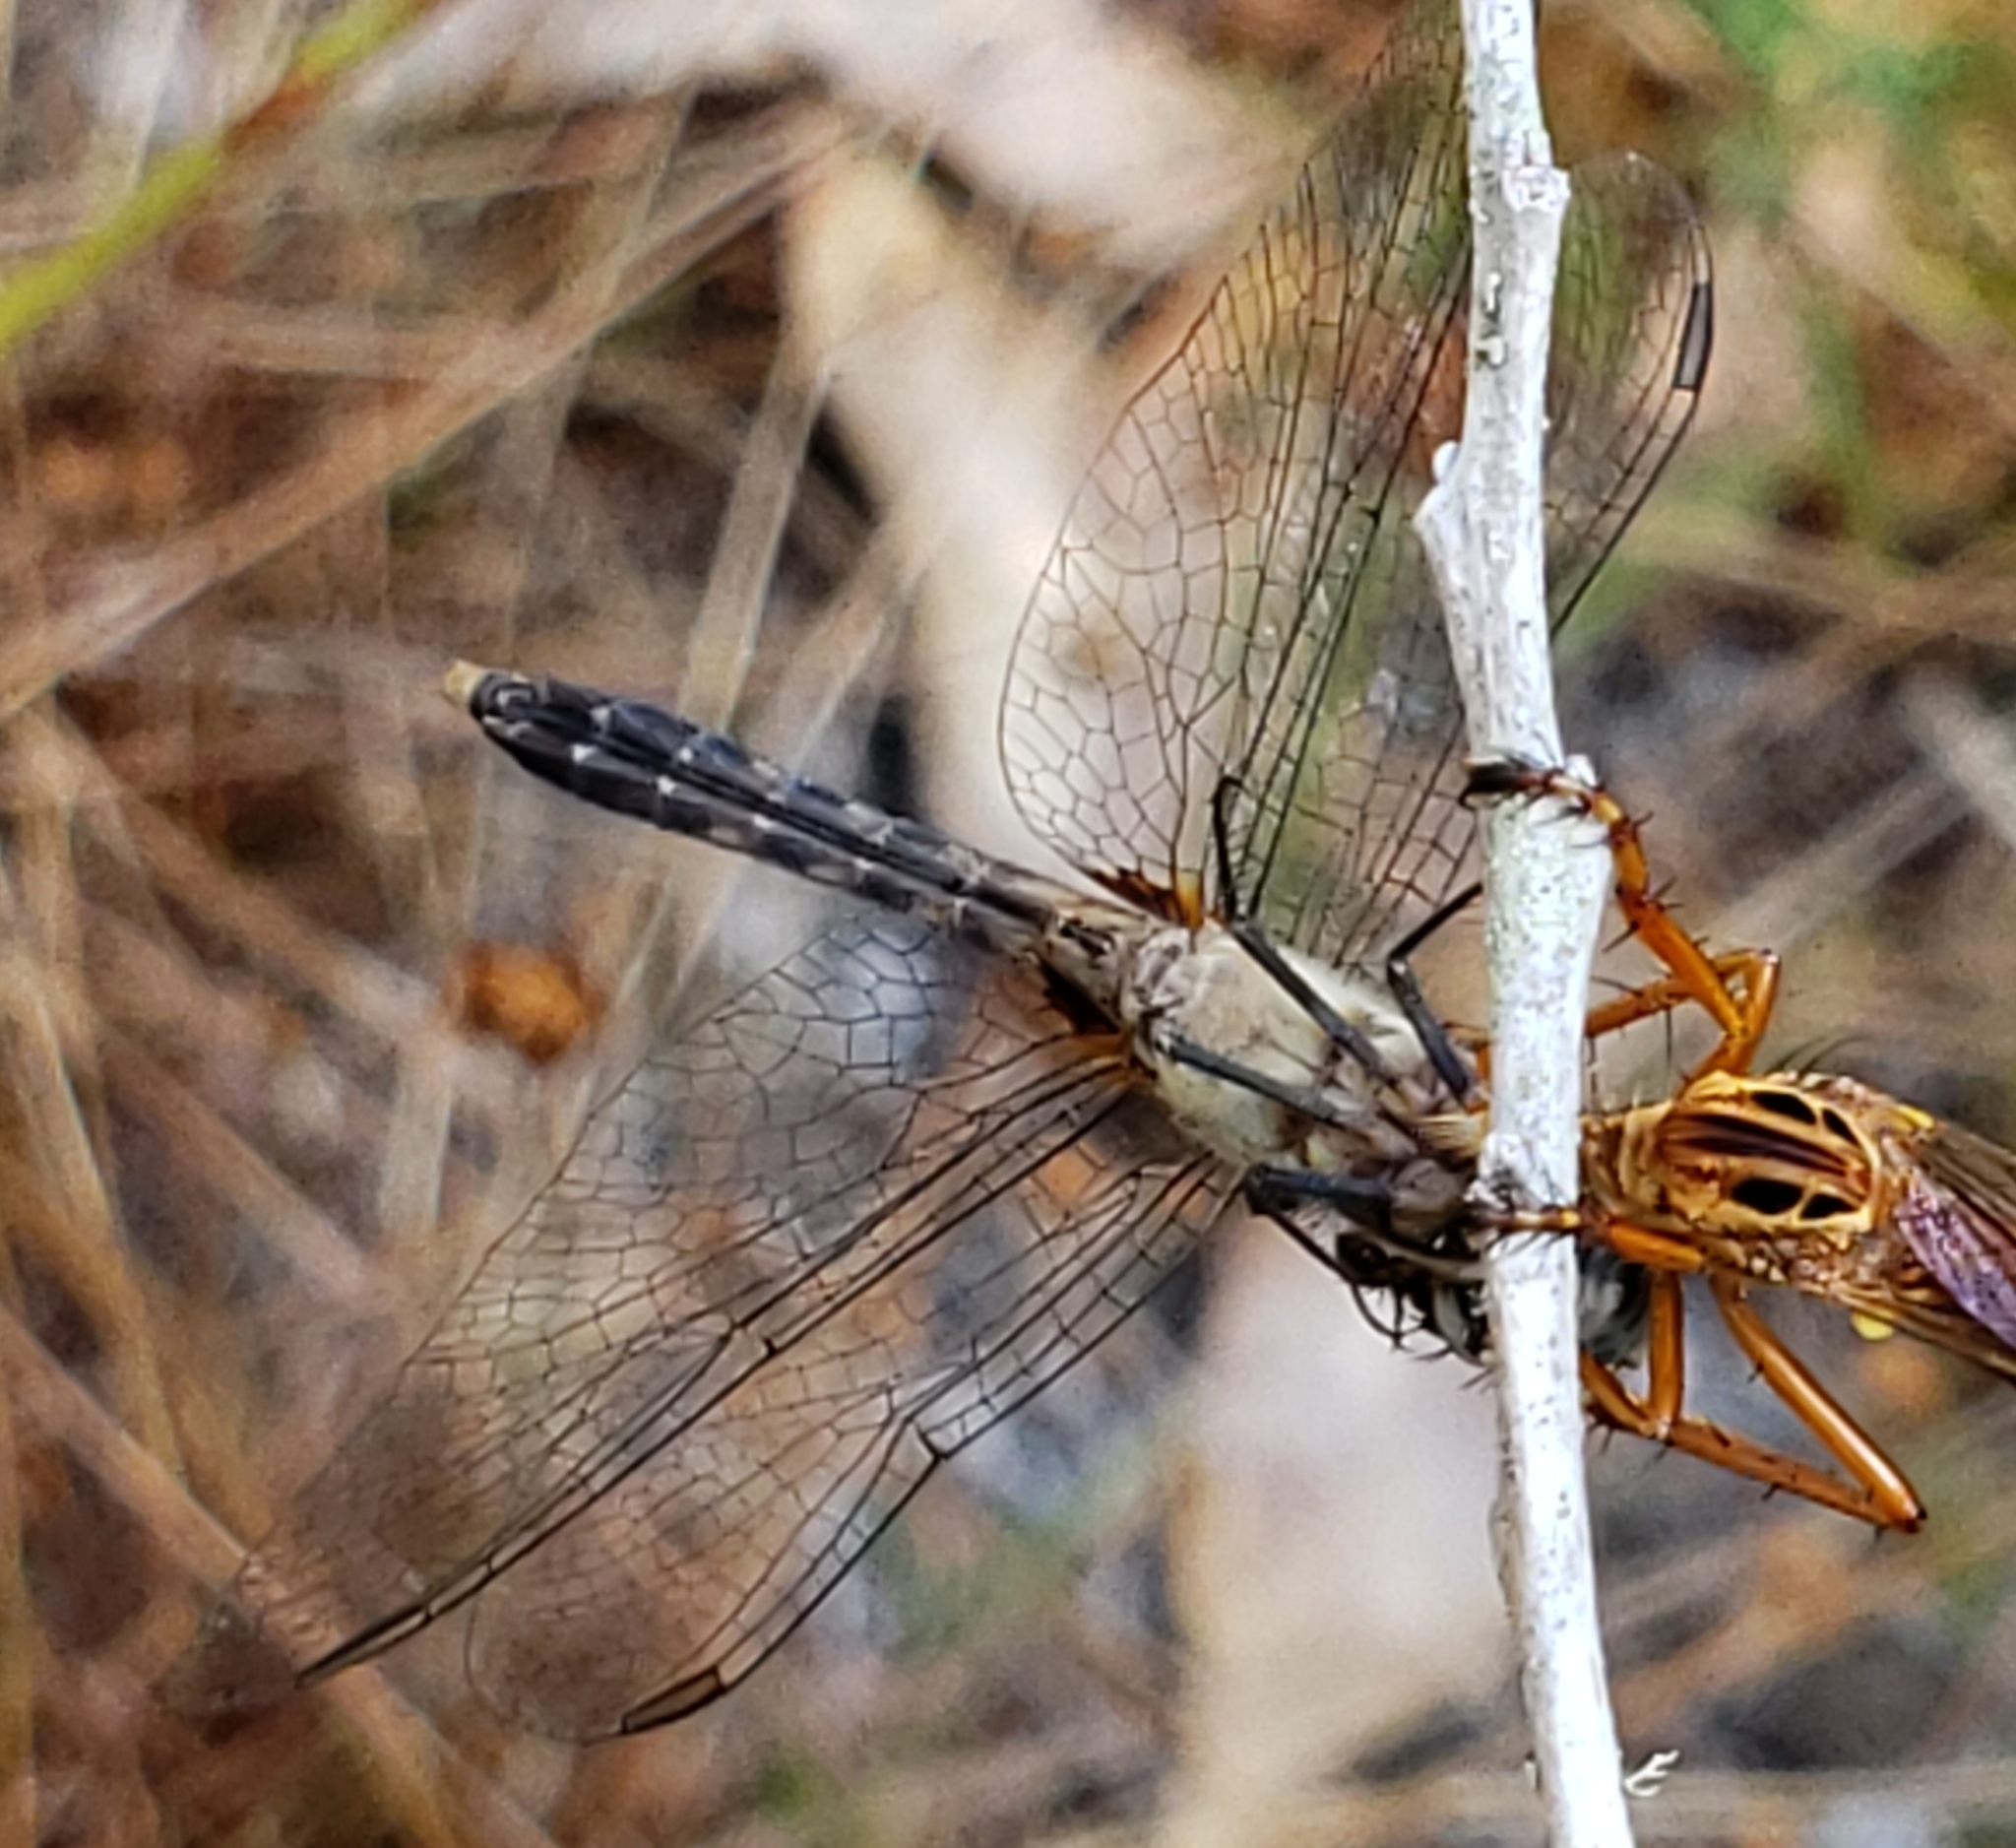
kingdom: Animalia
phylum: Arthropoda
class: Insecta
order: Odonata
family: Libellulidae
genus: Pachydiplax
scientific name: Pachydiplax longipennis
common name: Blue dasher
